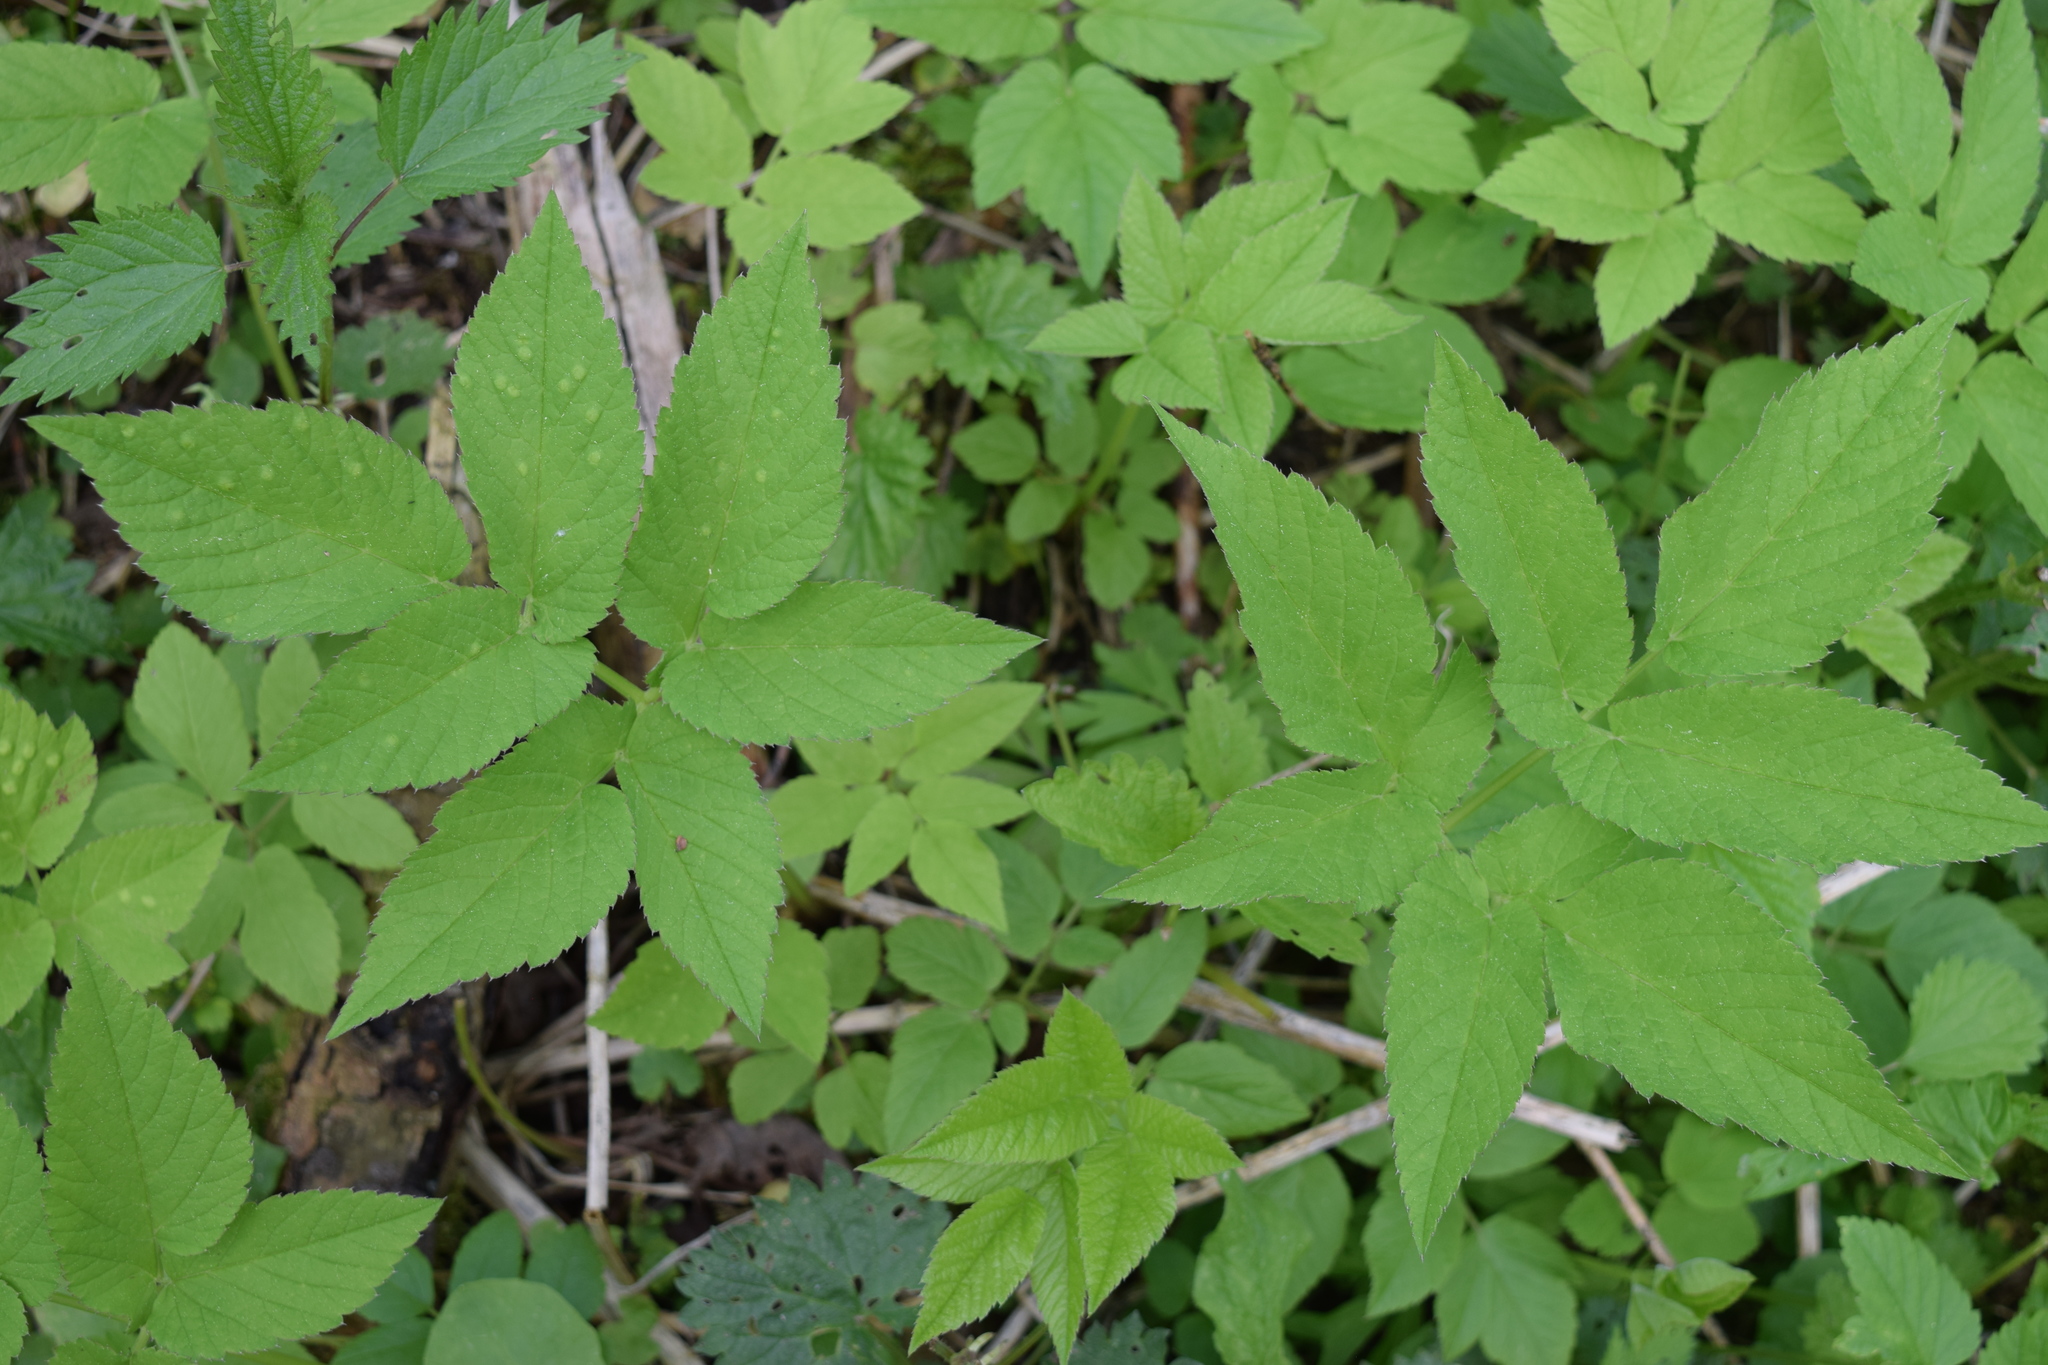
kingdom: Plantae
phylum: Tracheophyta
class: Magnoliopsida
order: Apiales
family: Apiaceae
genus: Aegopodium
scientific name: Aegopodium podagraria
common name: Ground-elder
